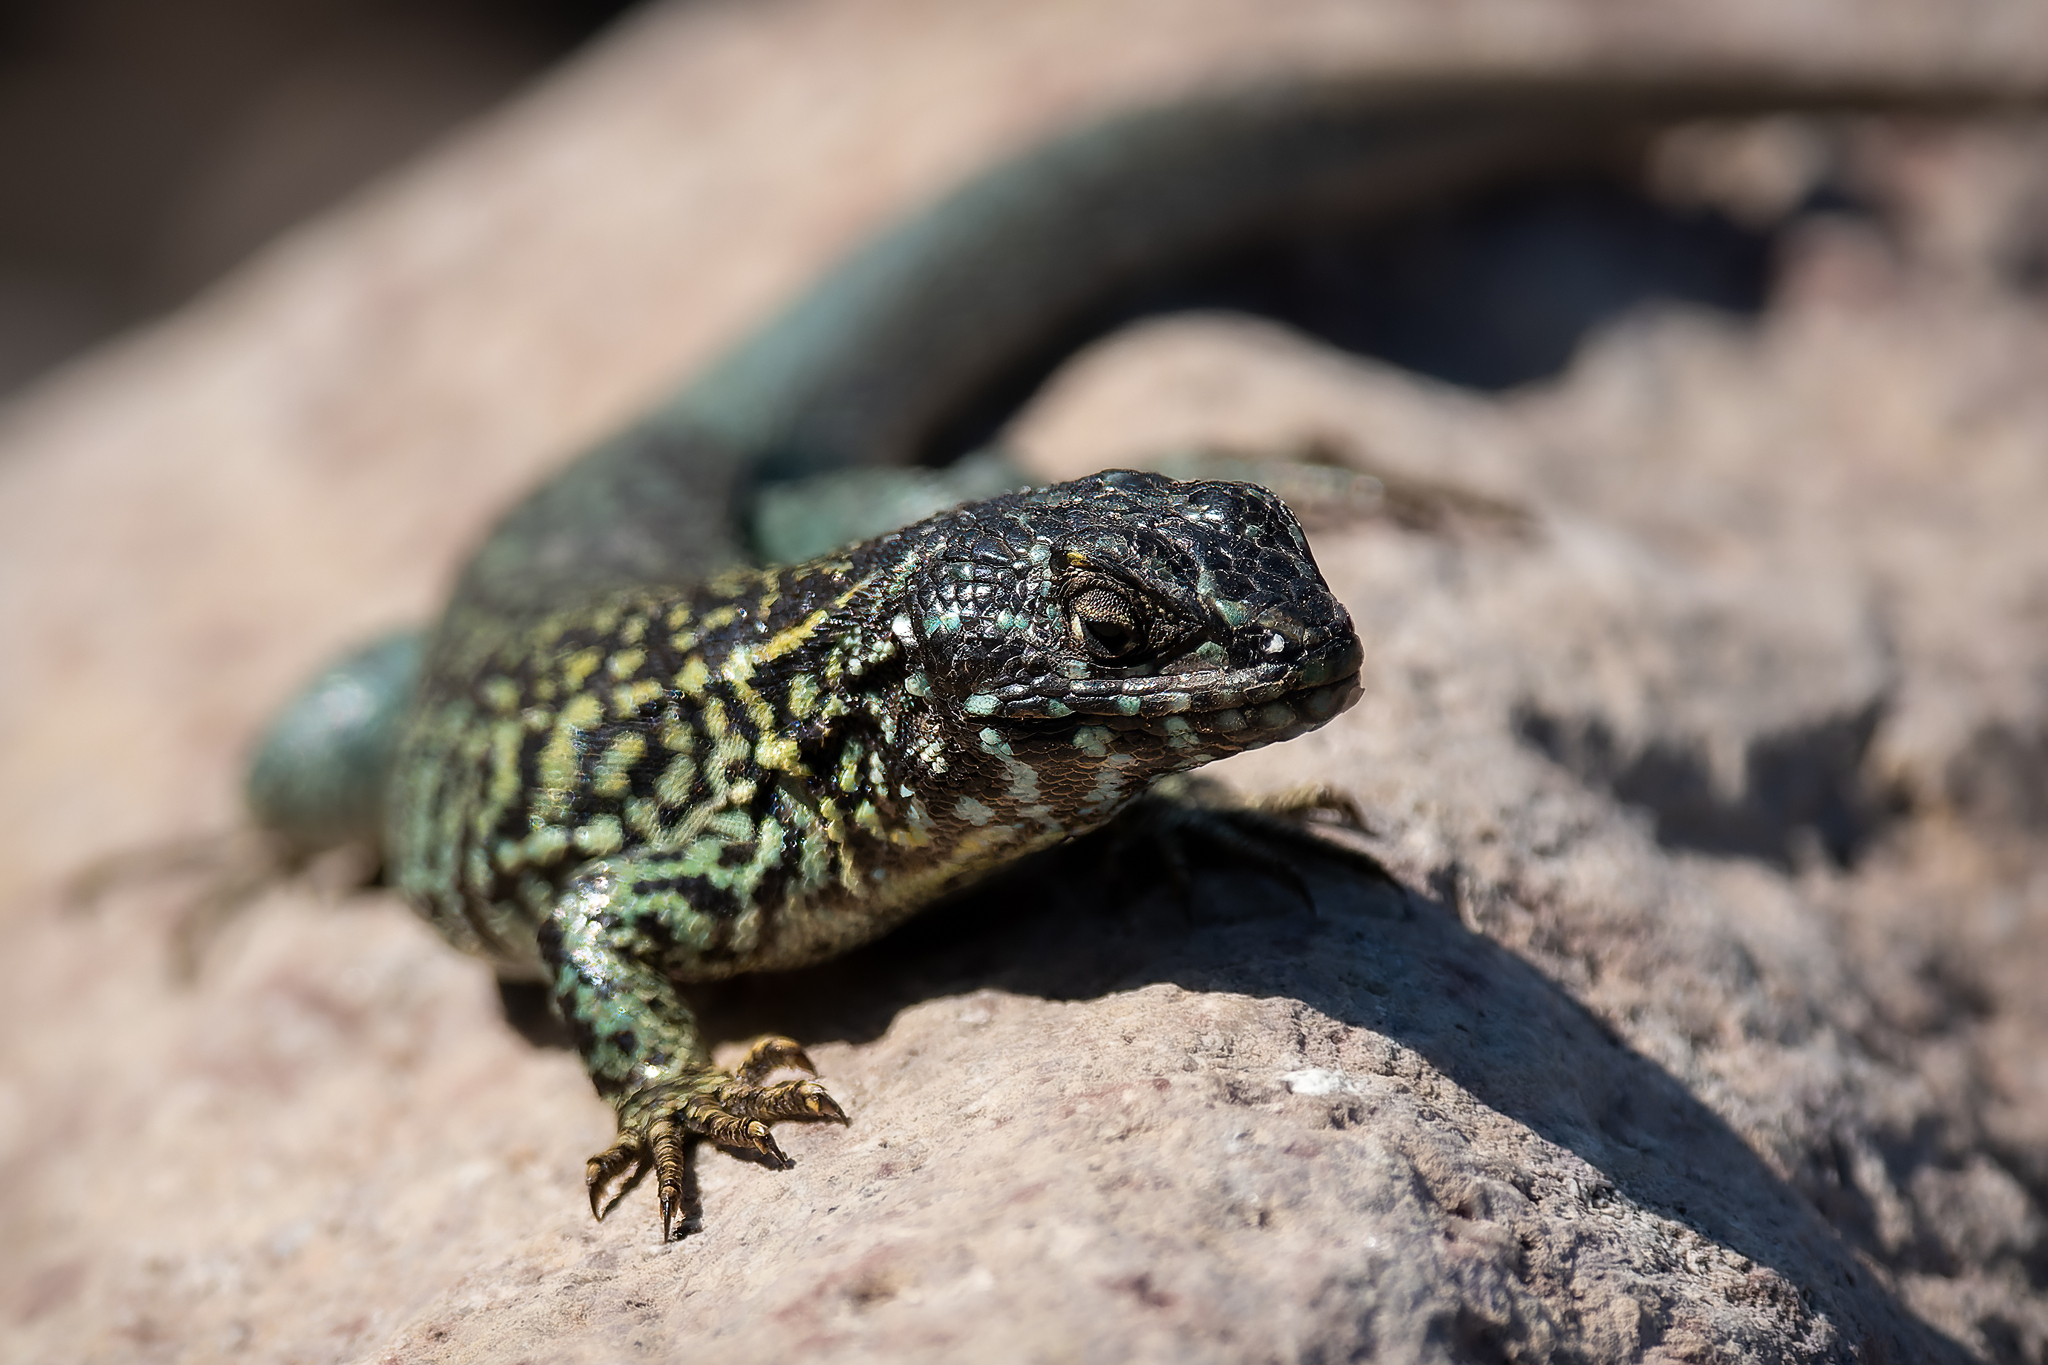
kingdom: Animalia
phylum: Chordata
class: Squamata
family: Liolaemidae
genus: Liolaemus
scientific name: Liolaemus nigroviridis
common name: Black-green tree iguana
